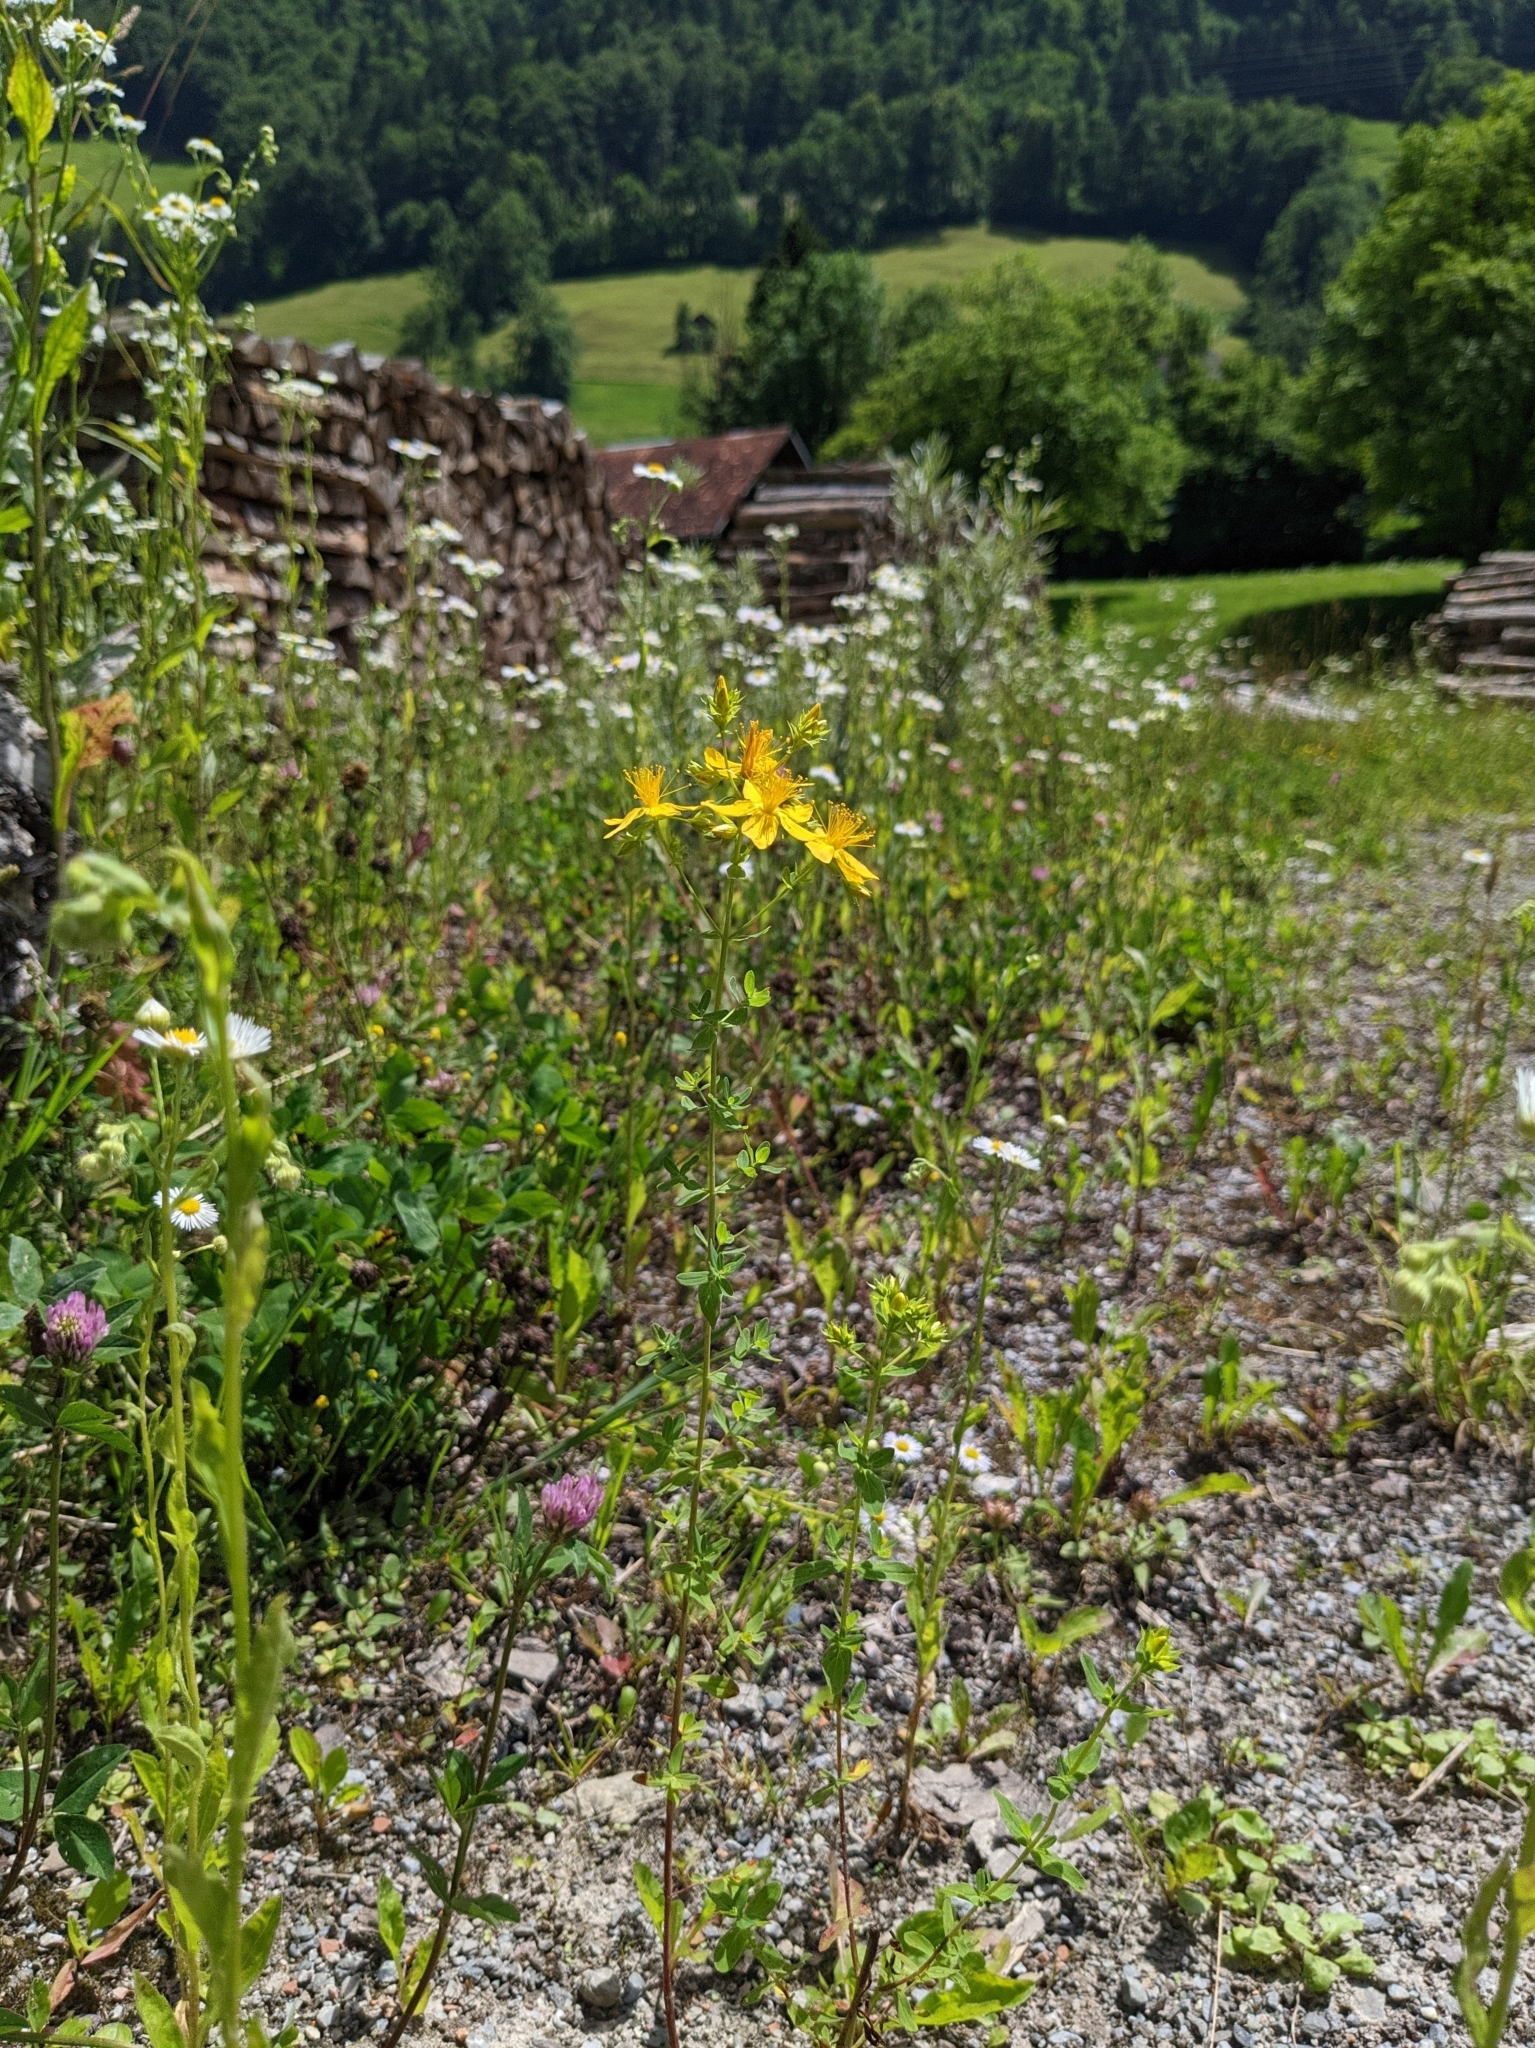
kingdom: Plantae
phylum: Tracheophyta
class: Magnoliopsida
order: Malpighiales
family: Hypericaceae
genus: Hypericum
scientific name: Hypericum perforatum
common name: Common st. johnswort
